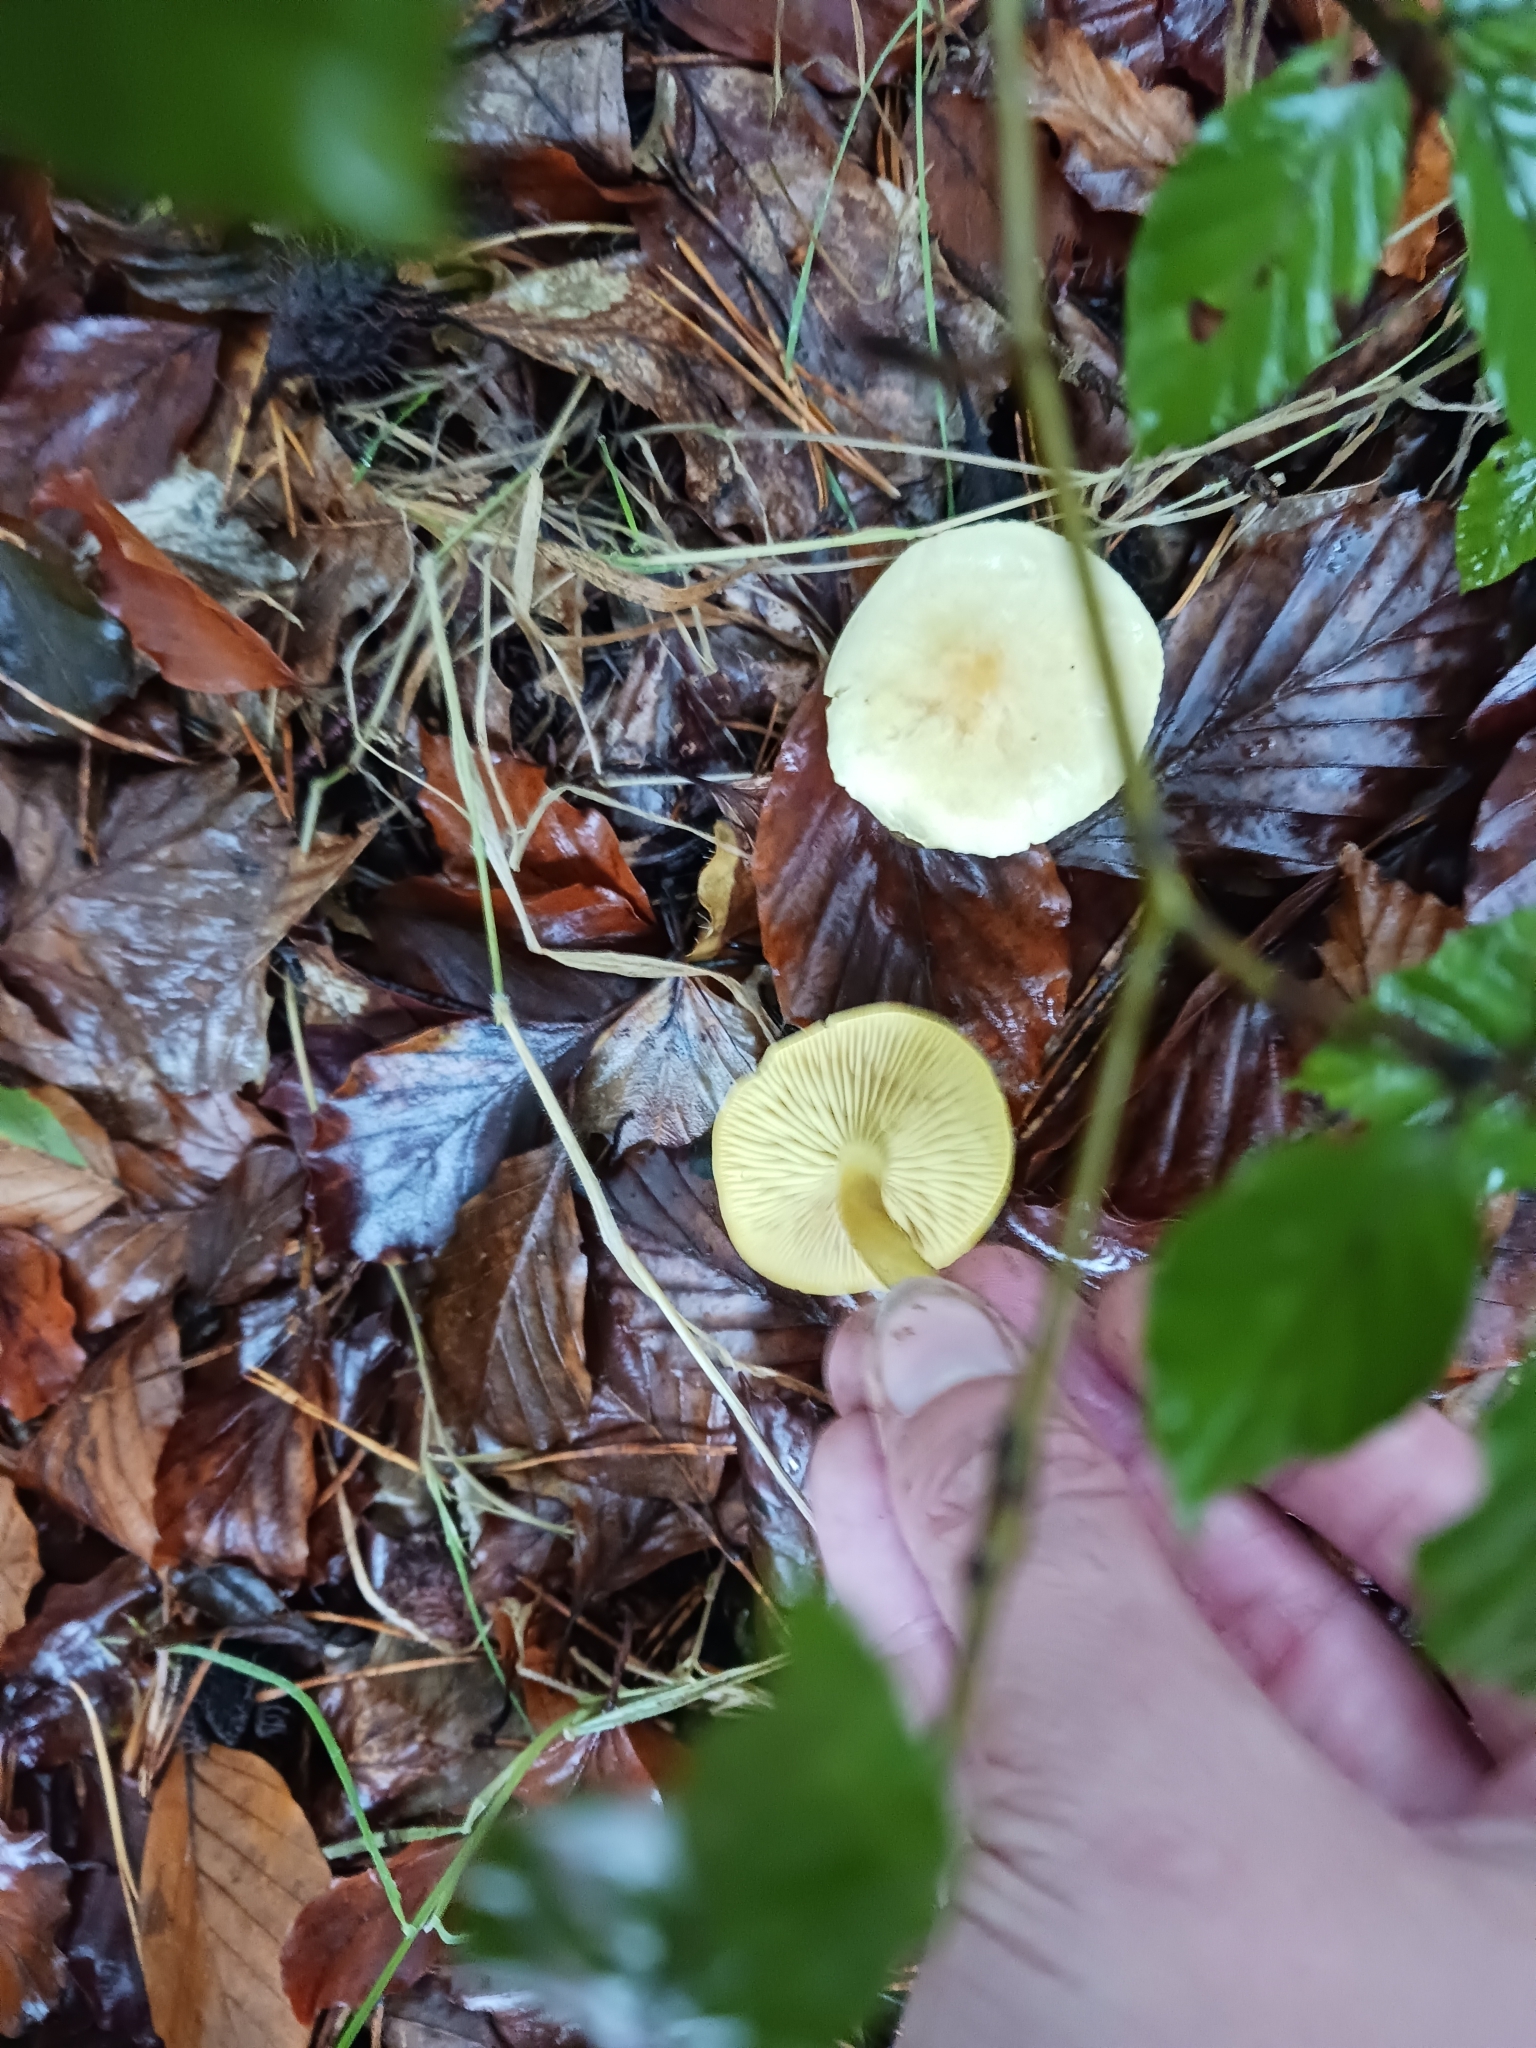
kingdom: Fungi
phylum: Basidiomycota
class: Agaricomycetes
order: Agaricales
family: Tricholomataceae
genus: Tricholoma
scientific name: Tricholoma sulphureum
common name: Stinky knight
